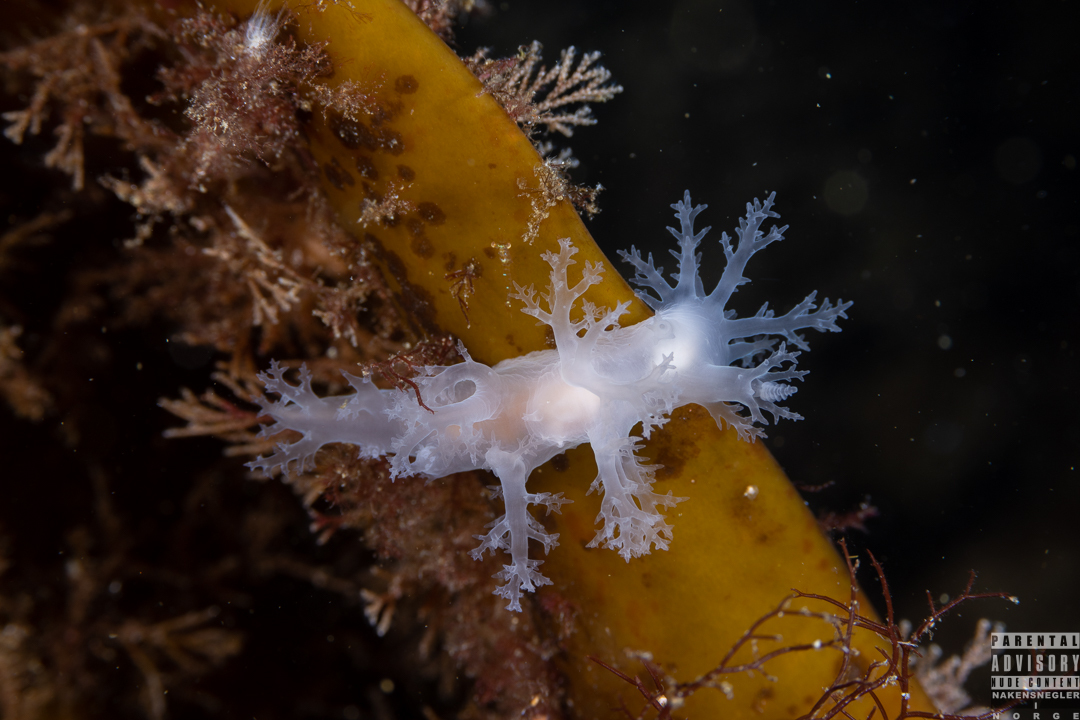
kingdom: Animalia
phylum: Mollusca
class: Gastropoda
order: Nudibranchia
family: Dendronotidae
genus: Dendronotus
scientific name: Dendronotus lacteus
